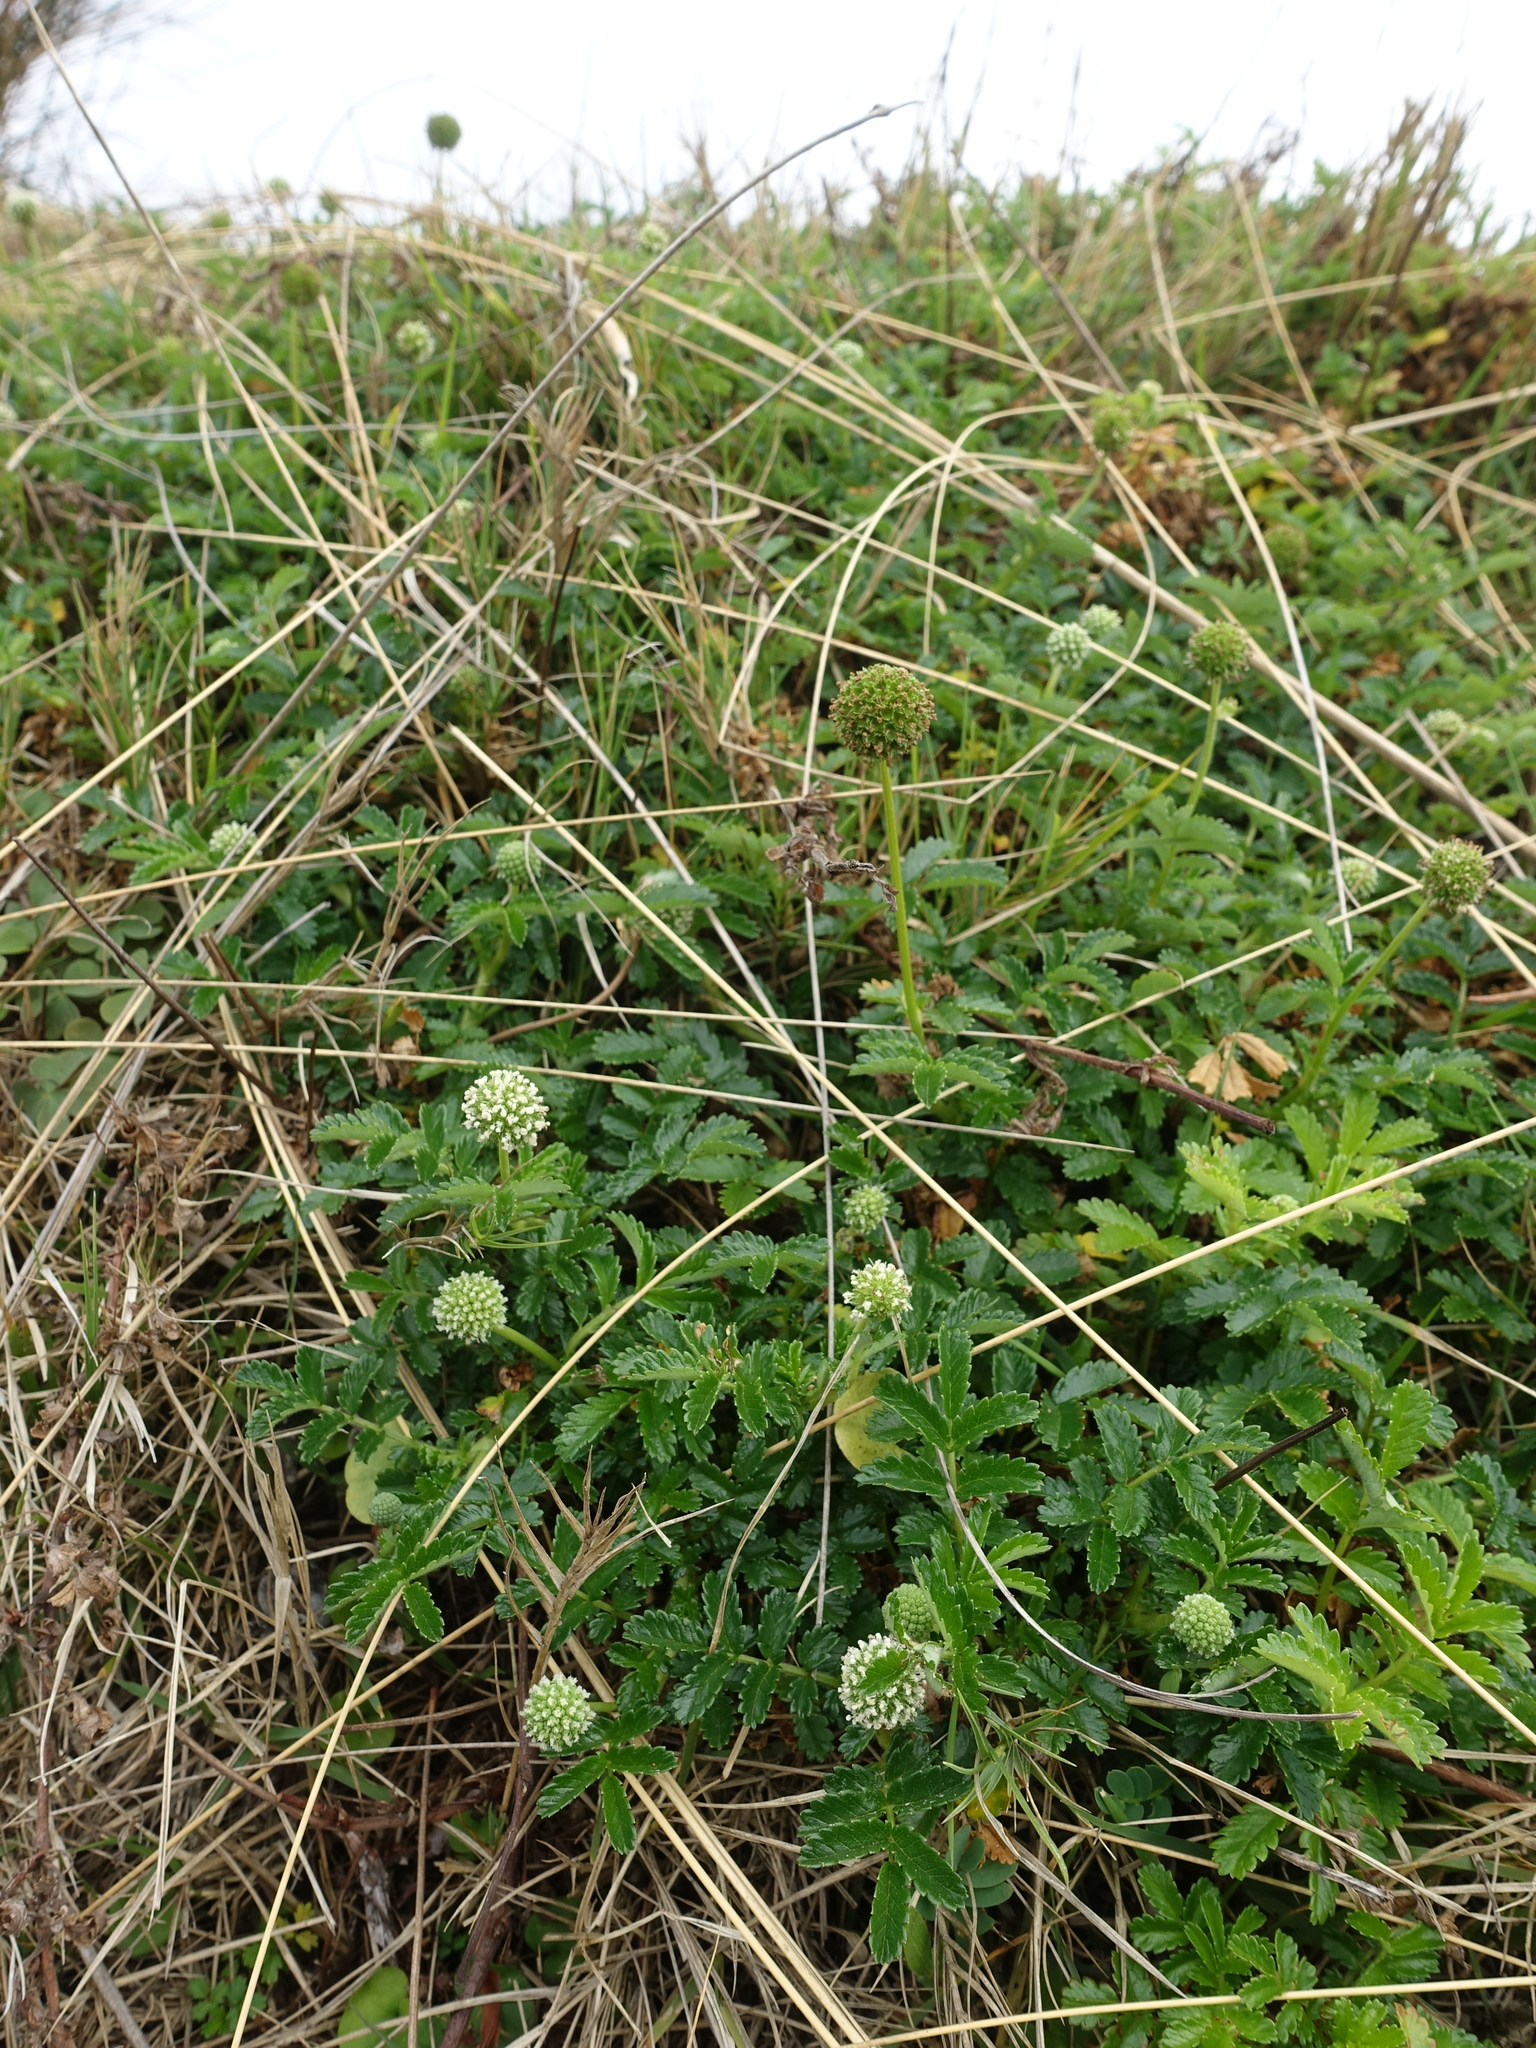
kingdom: Plantae
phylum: Tracheophyta
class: Magnoliopsida
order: Rosales
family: Rosaceae
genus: Acaena
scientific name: Acaena novae-zelandiae
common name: Pirri-pirri-bur
